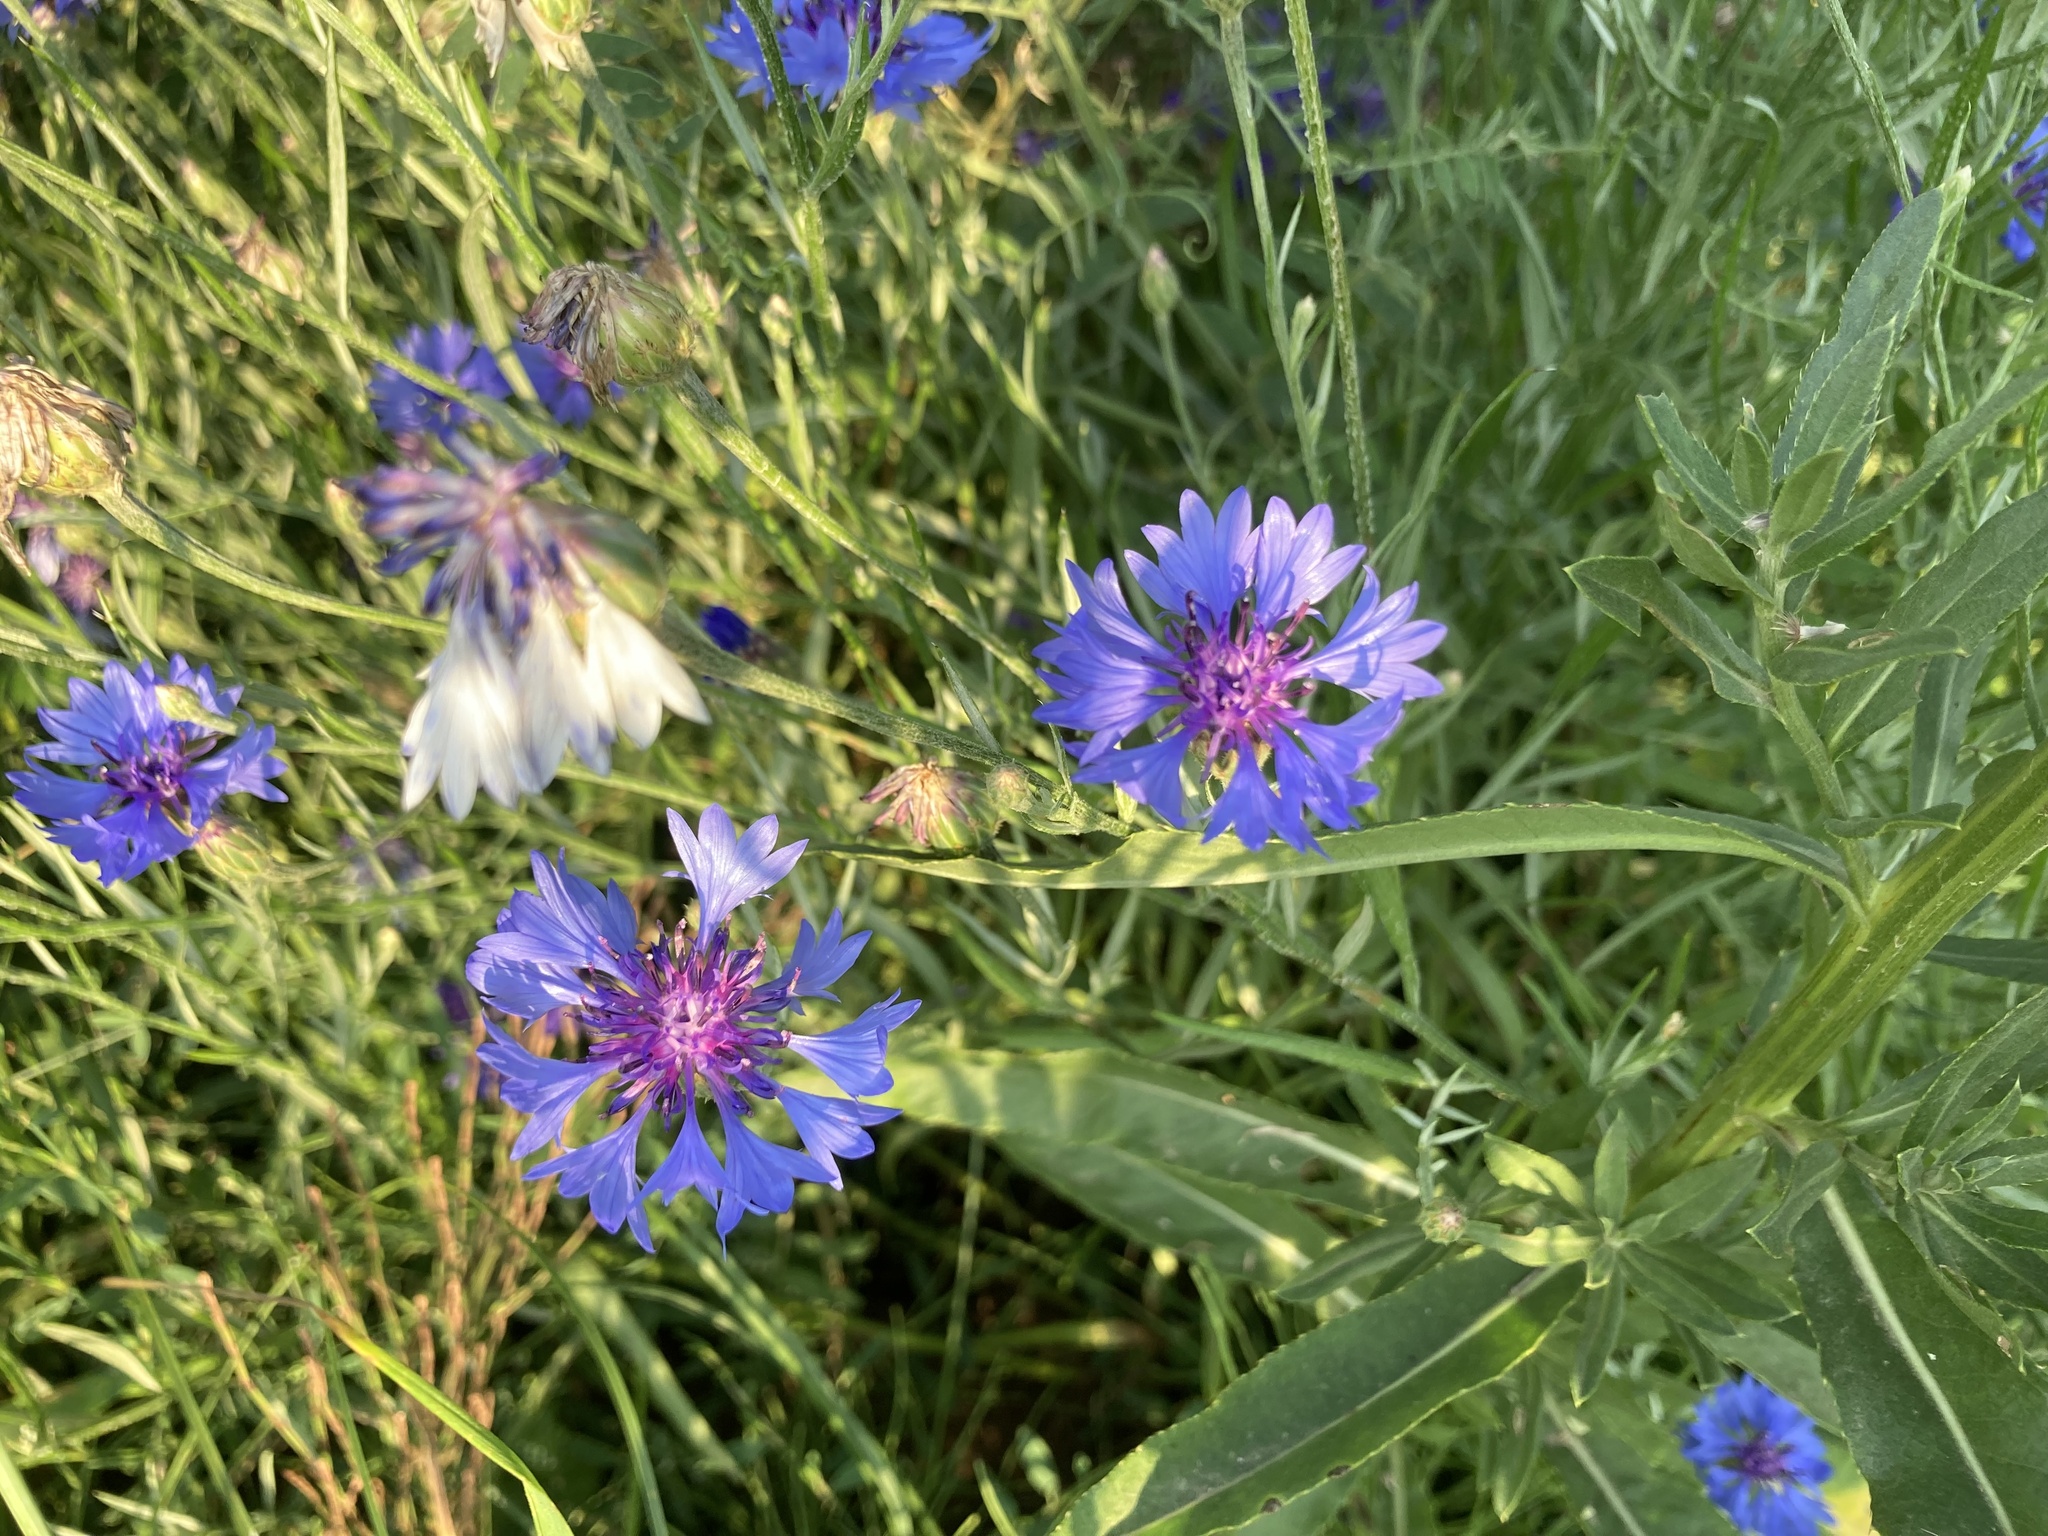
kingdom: Plantae
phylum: Tracheophyta
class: Magnoliopsida
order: Asterales
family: Asteraceae
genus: Centaurea
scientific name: Centaurea cyanus
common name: Cornflower
